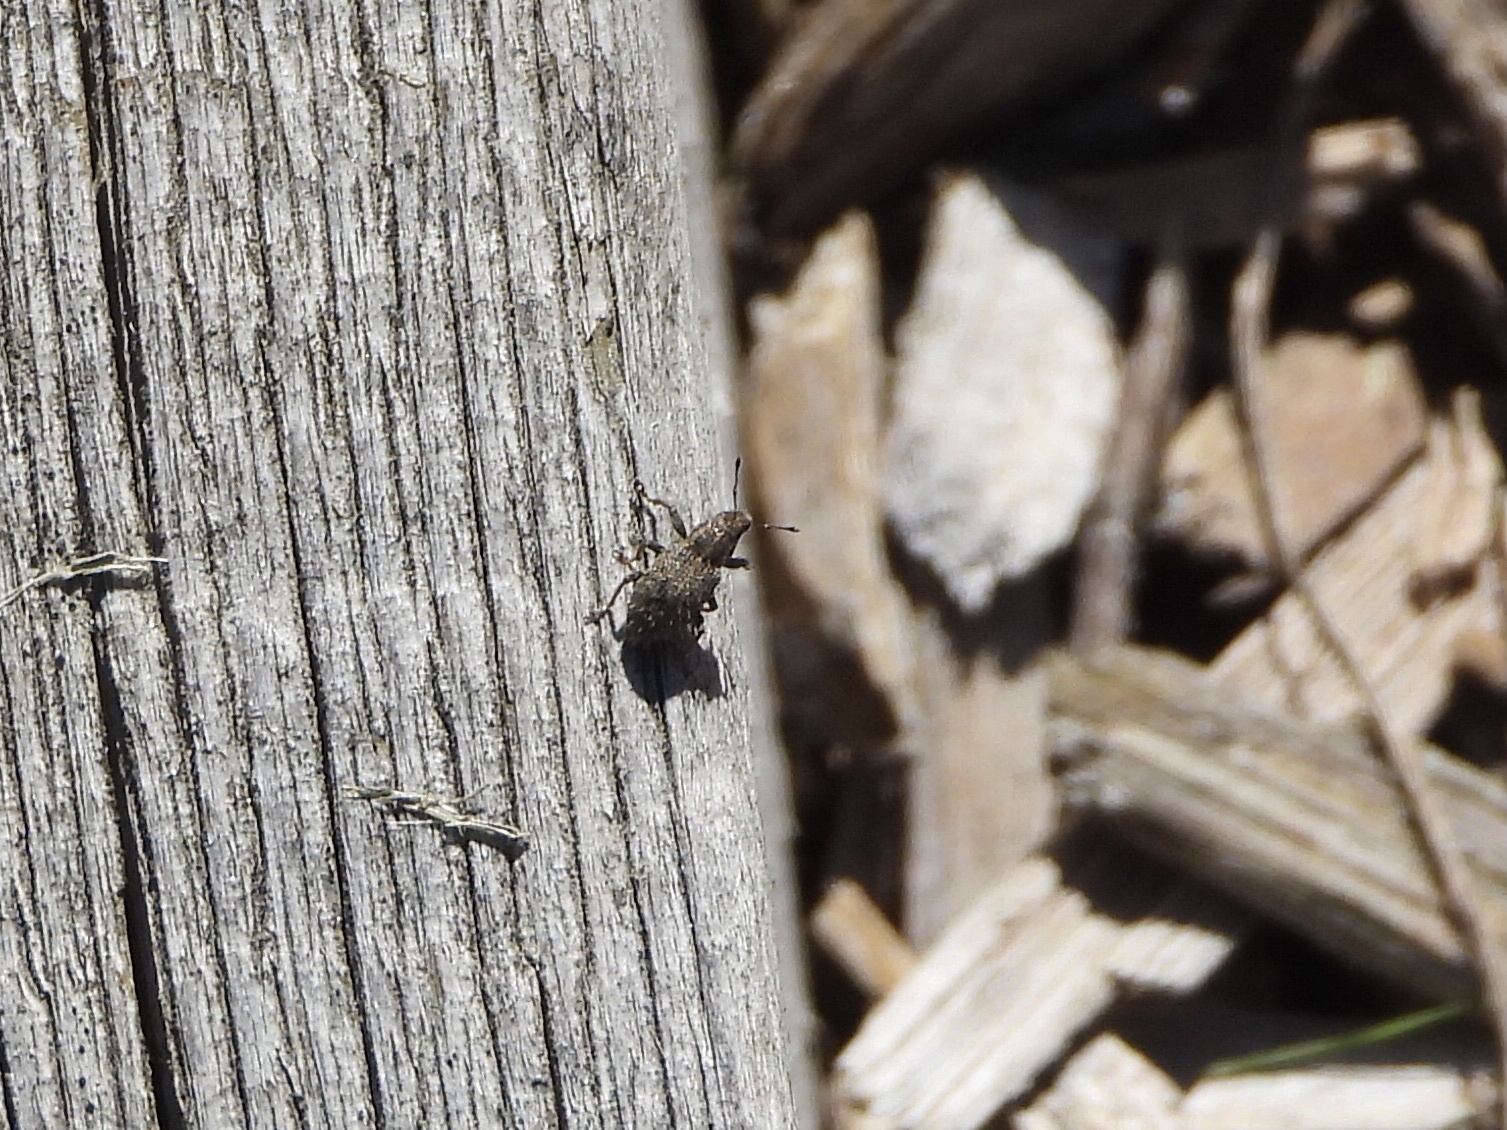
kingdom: Animalia
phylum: Arthropoda
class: Insecta
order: Coleoptera
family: Curculionidae
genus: Sitona
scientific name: Sitona hispidulus
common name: Clover weevil
